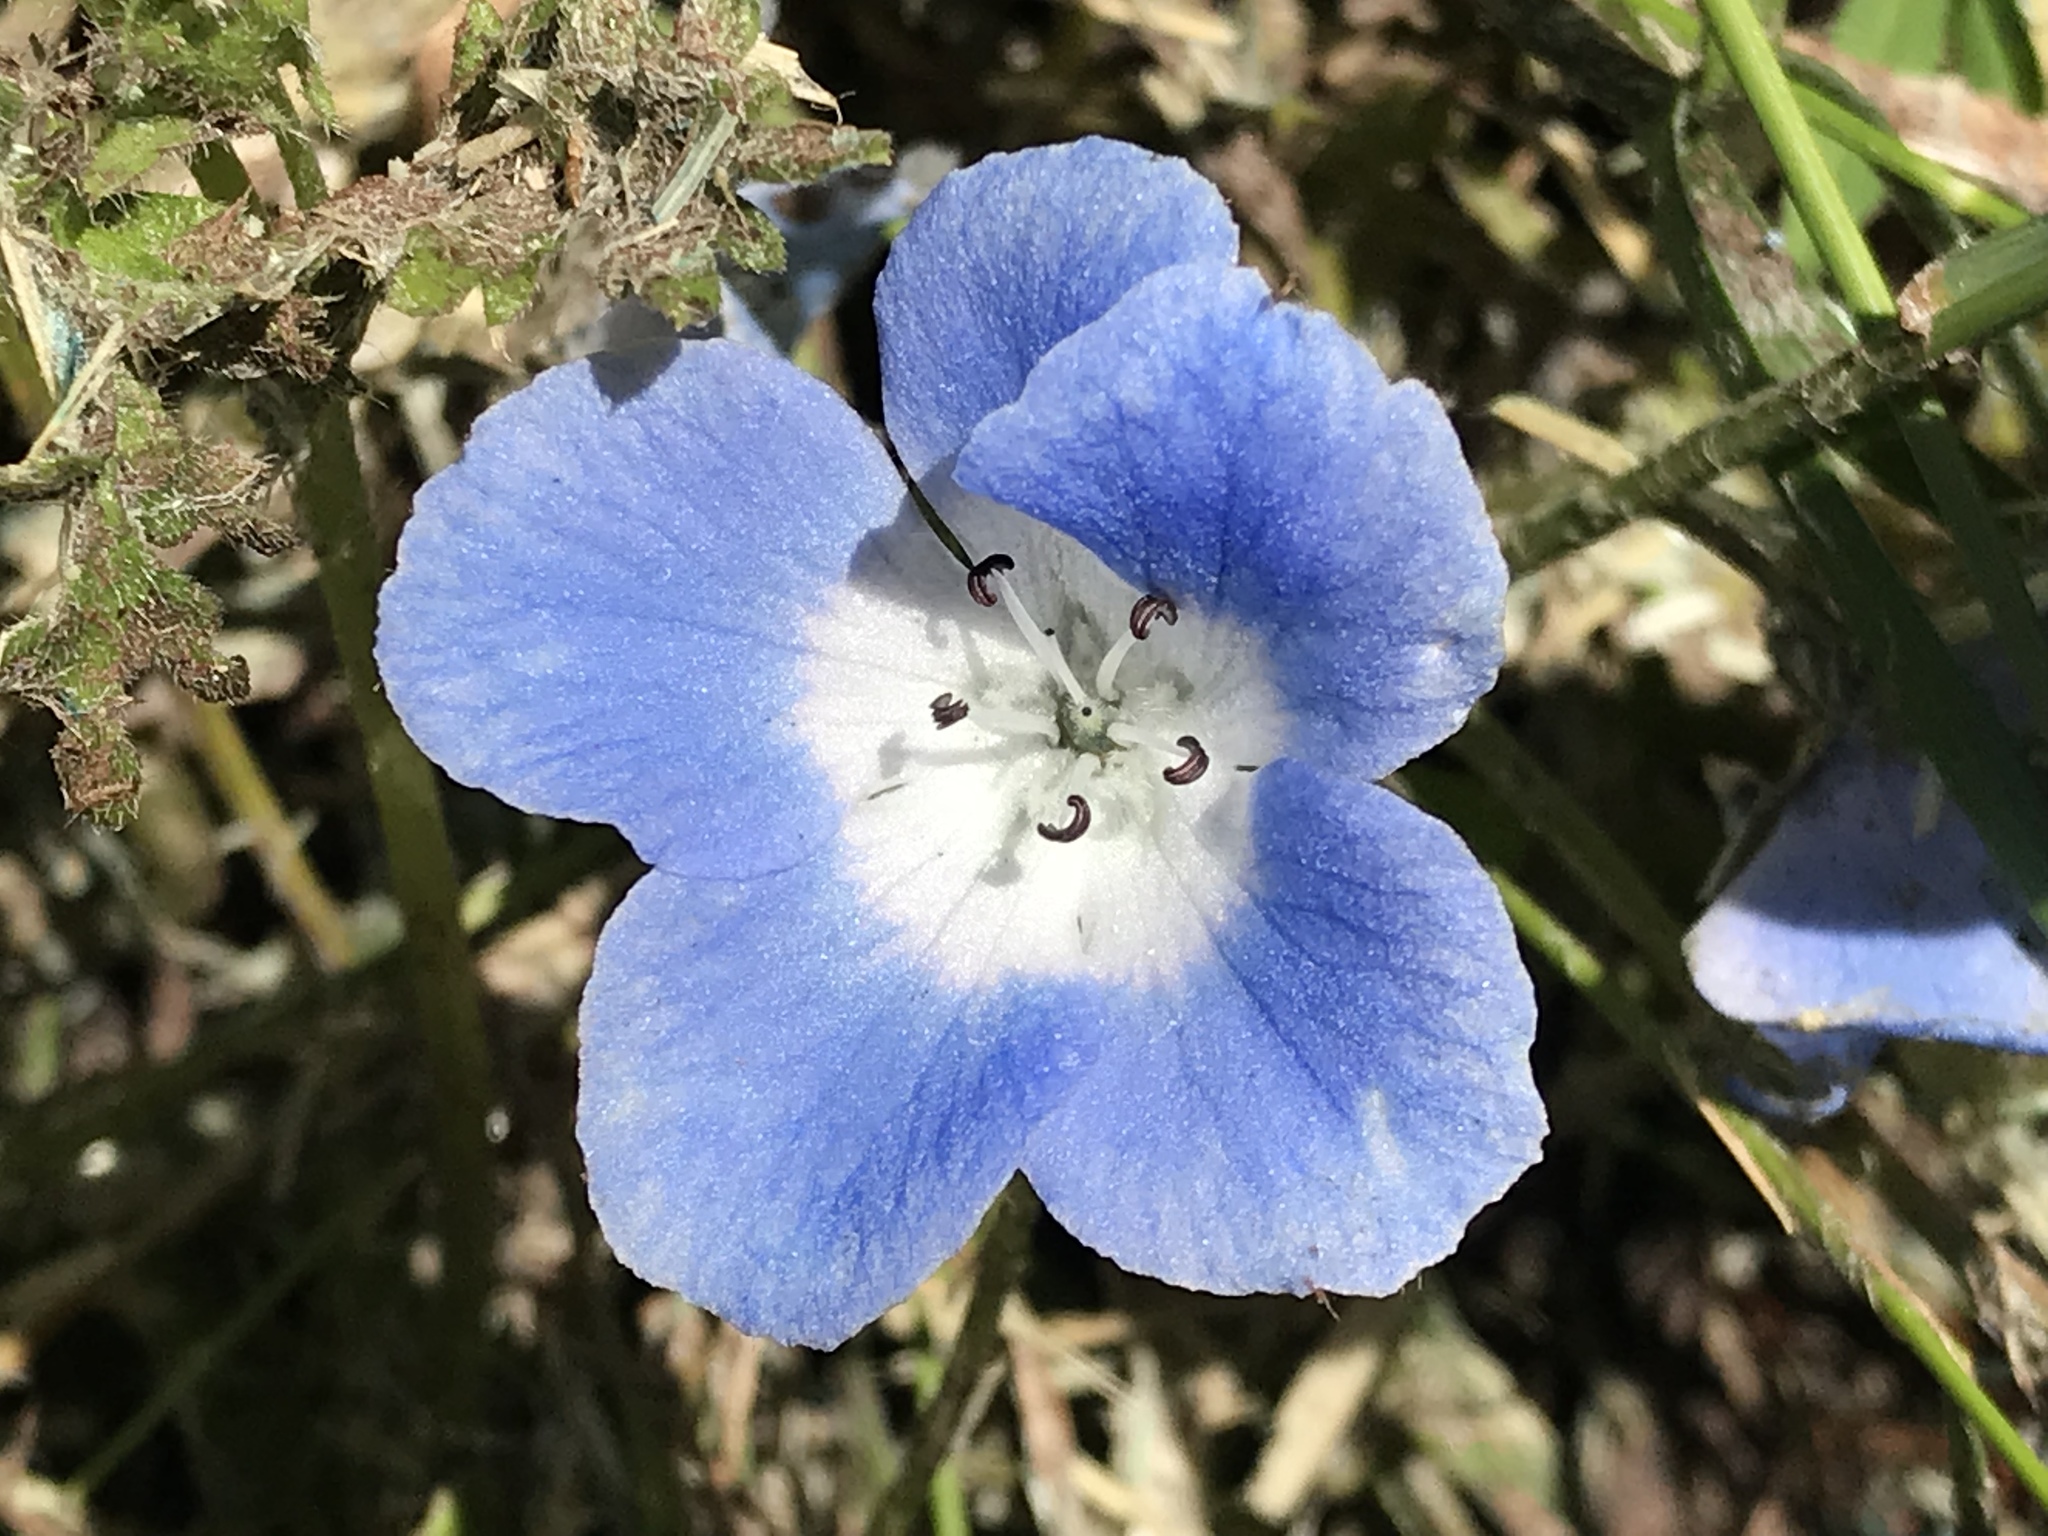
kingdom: Plantae
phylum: Tracheophyta
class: Magnoliopsida
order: Boraginales
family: Hydrophyllaceae
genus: Nemophila
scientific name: Nemophila menziesii
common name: Baby's-blue-eyes
